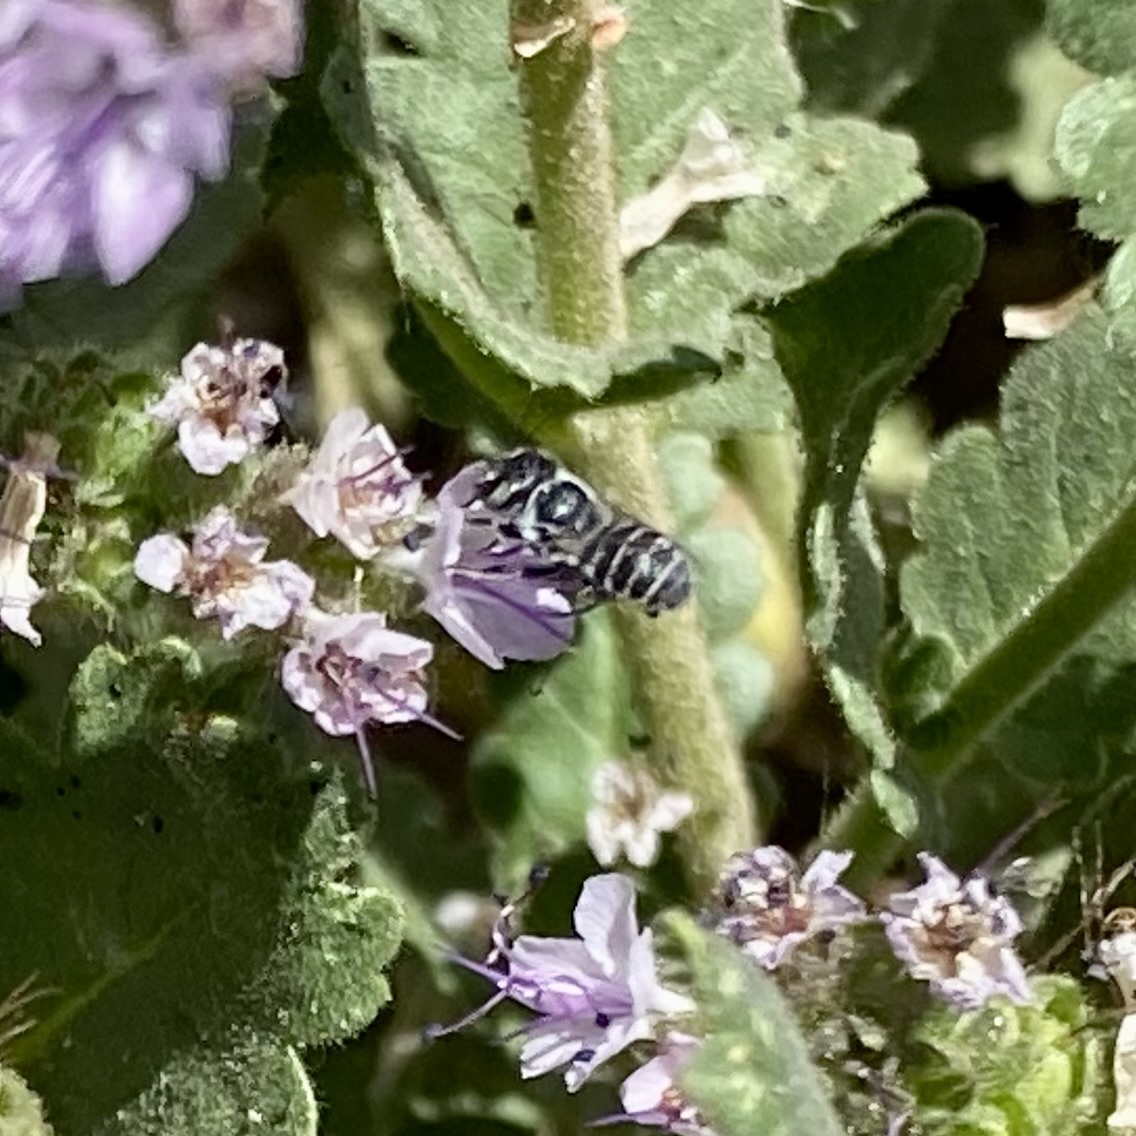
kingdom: Animalia
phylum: Arthropoda
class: Insecta
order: Hymenoptera
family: Megachilidae
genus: Ashmeadiella
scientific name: Ashmeadiella
